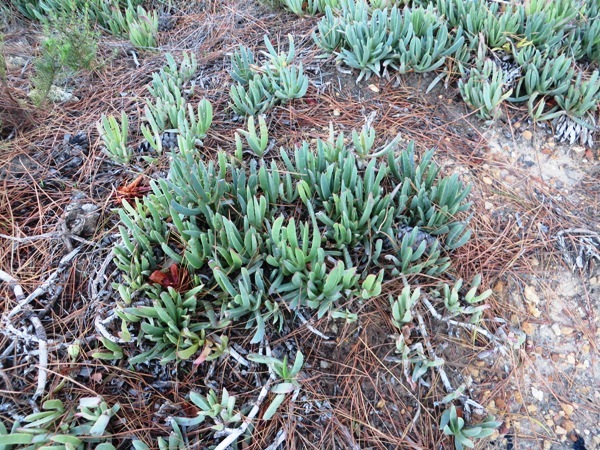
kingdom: Plantae
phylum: Tracheophyta
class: Magnoliopsida
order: Caryophyllales
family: Aizoaceae
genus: Carpobrotus
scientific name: Carpobrotus edulis
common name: Hottentot-fig
